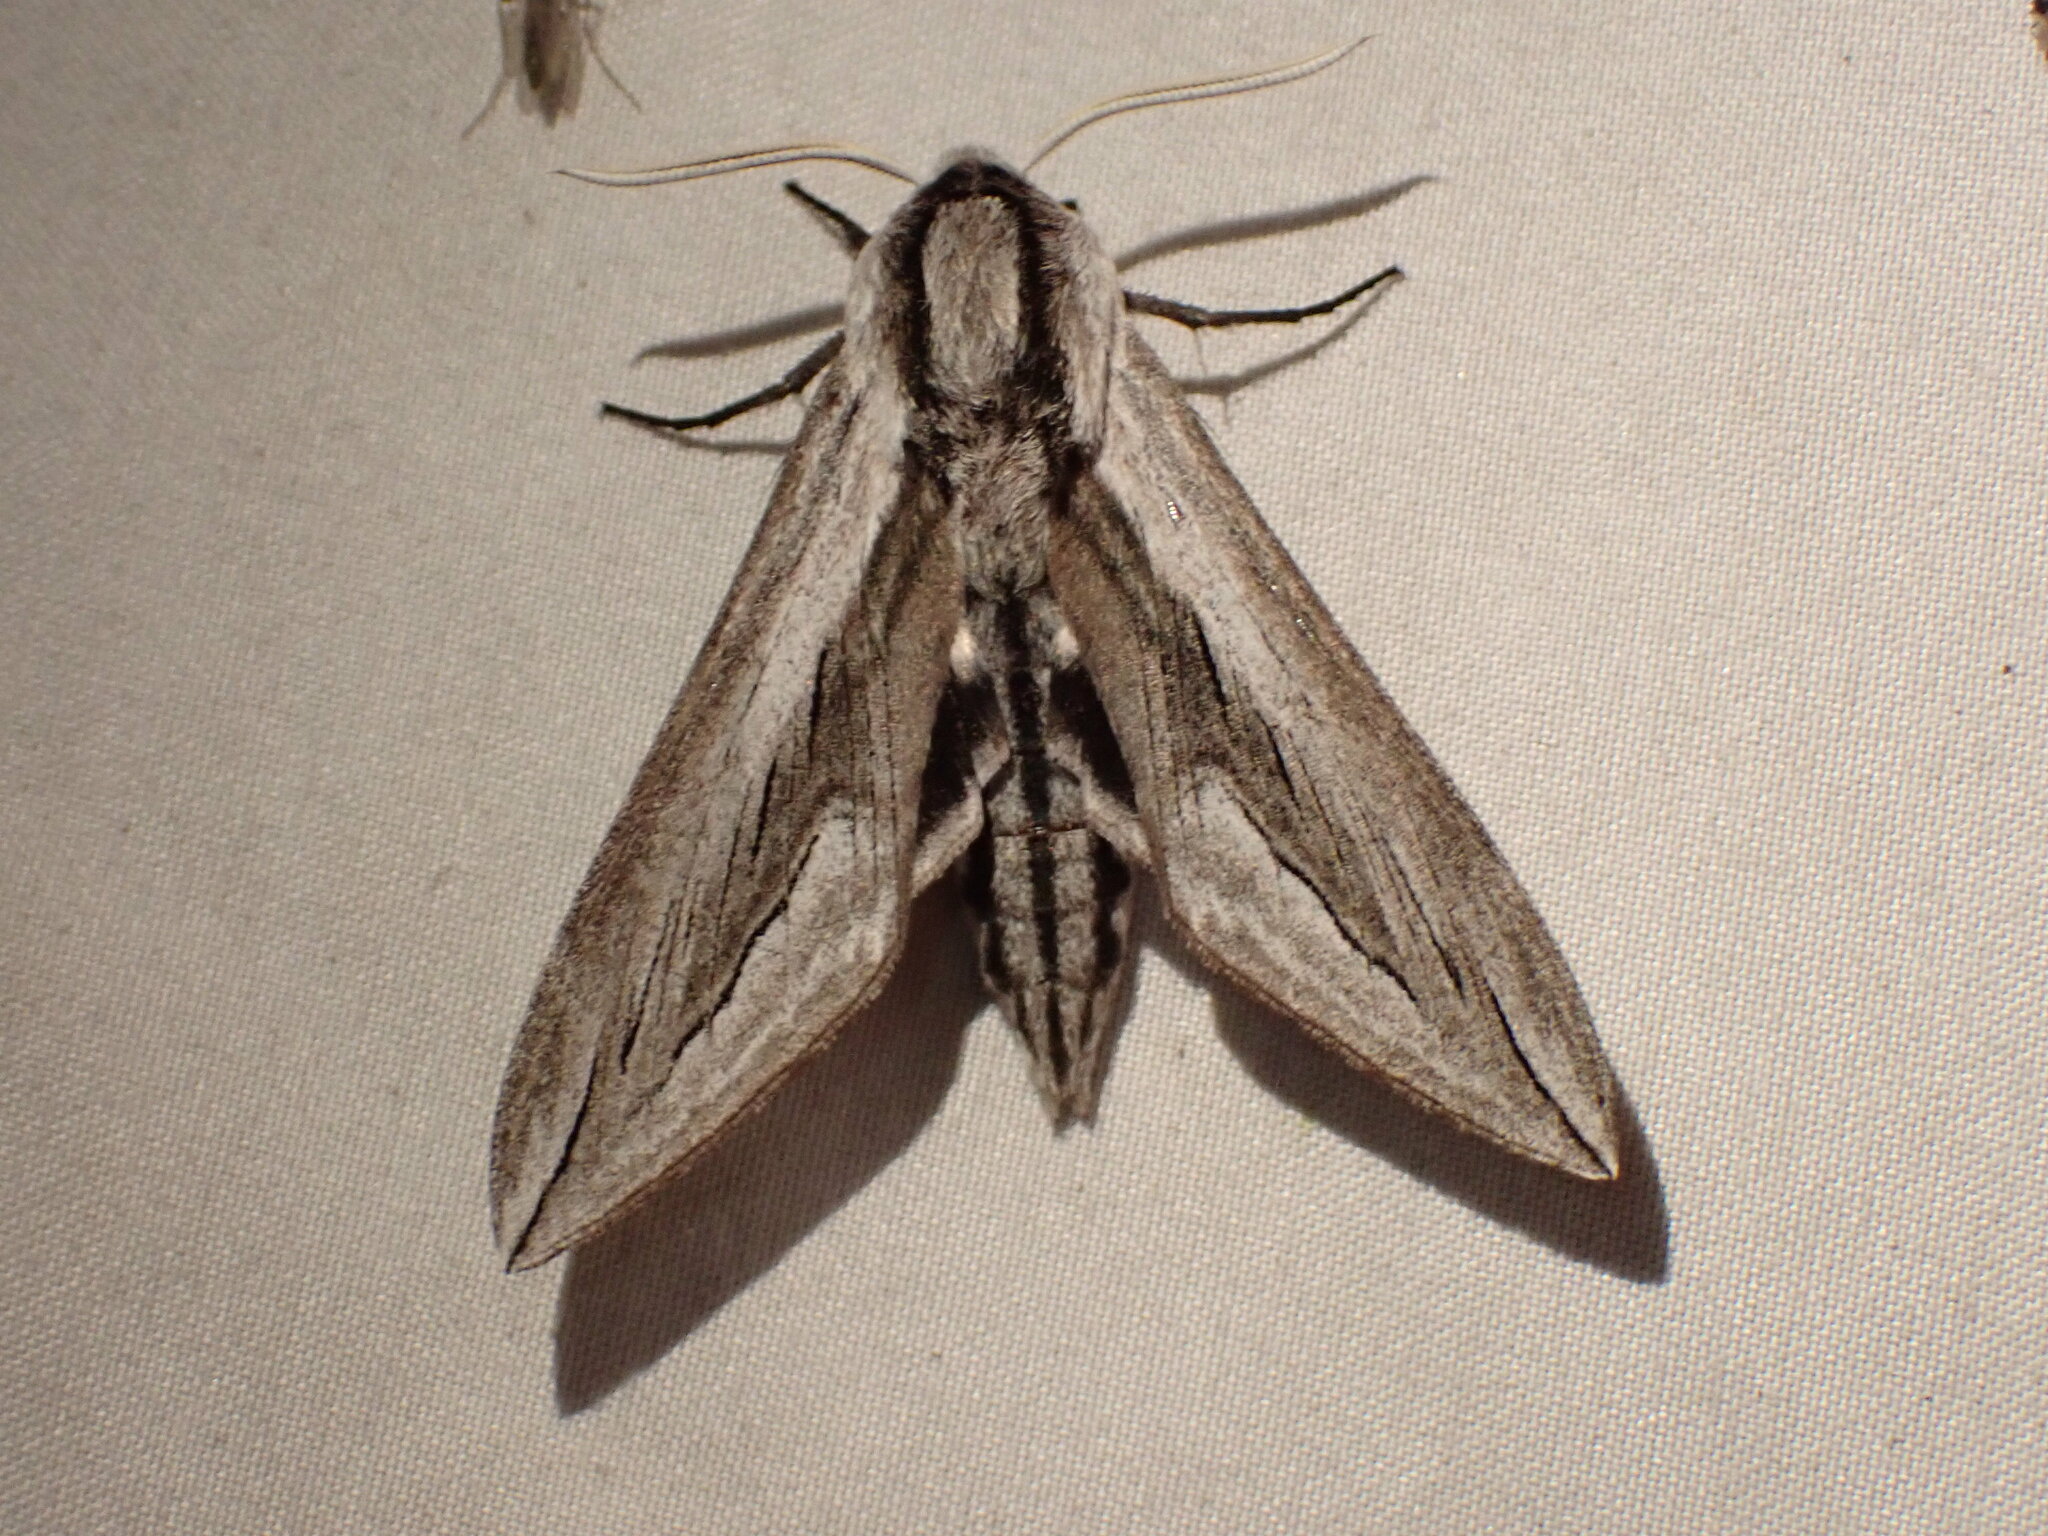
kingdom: Animalia
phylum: Arthropoda
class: Insecta
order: Lepidoptera
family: Sphingidae
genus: Sphinx
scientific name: Sphinx vashti
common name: Snowberry sphinx
